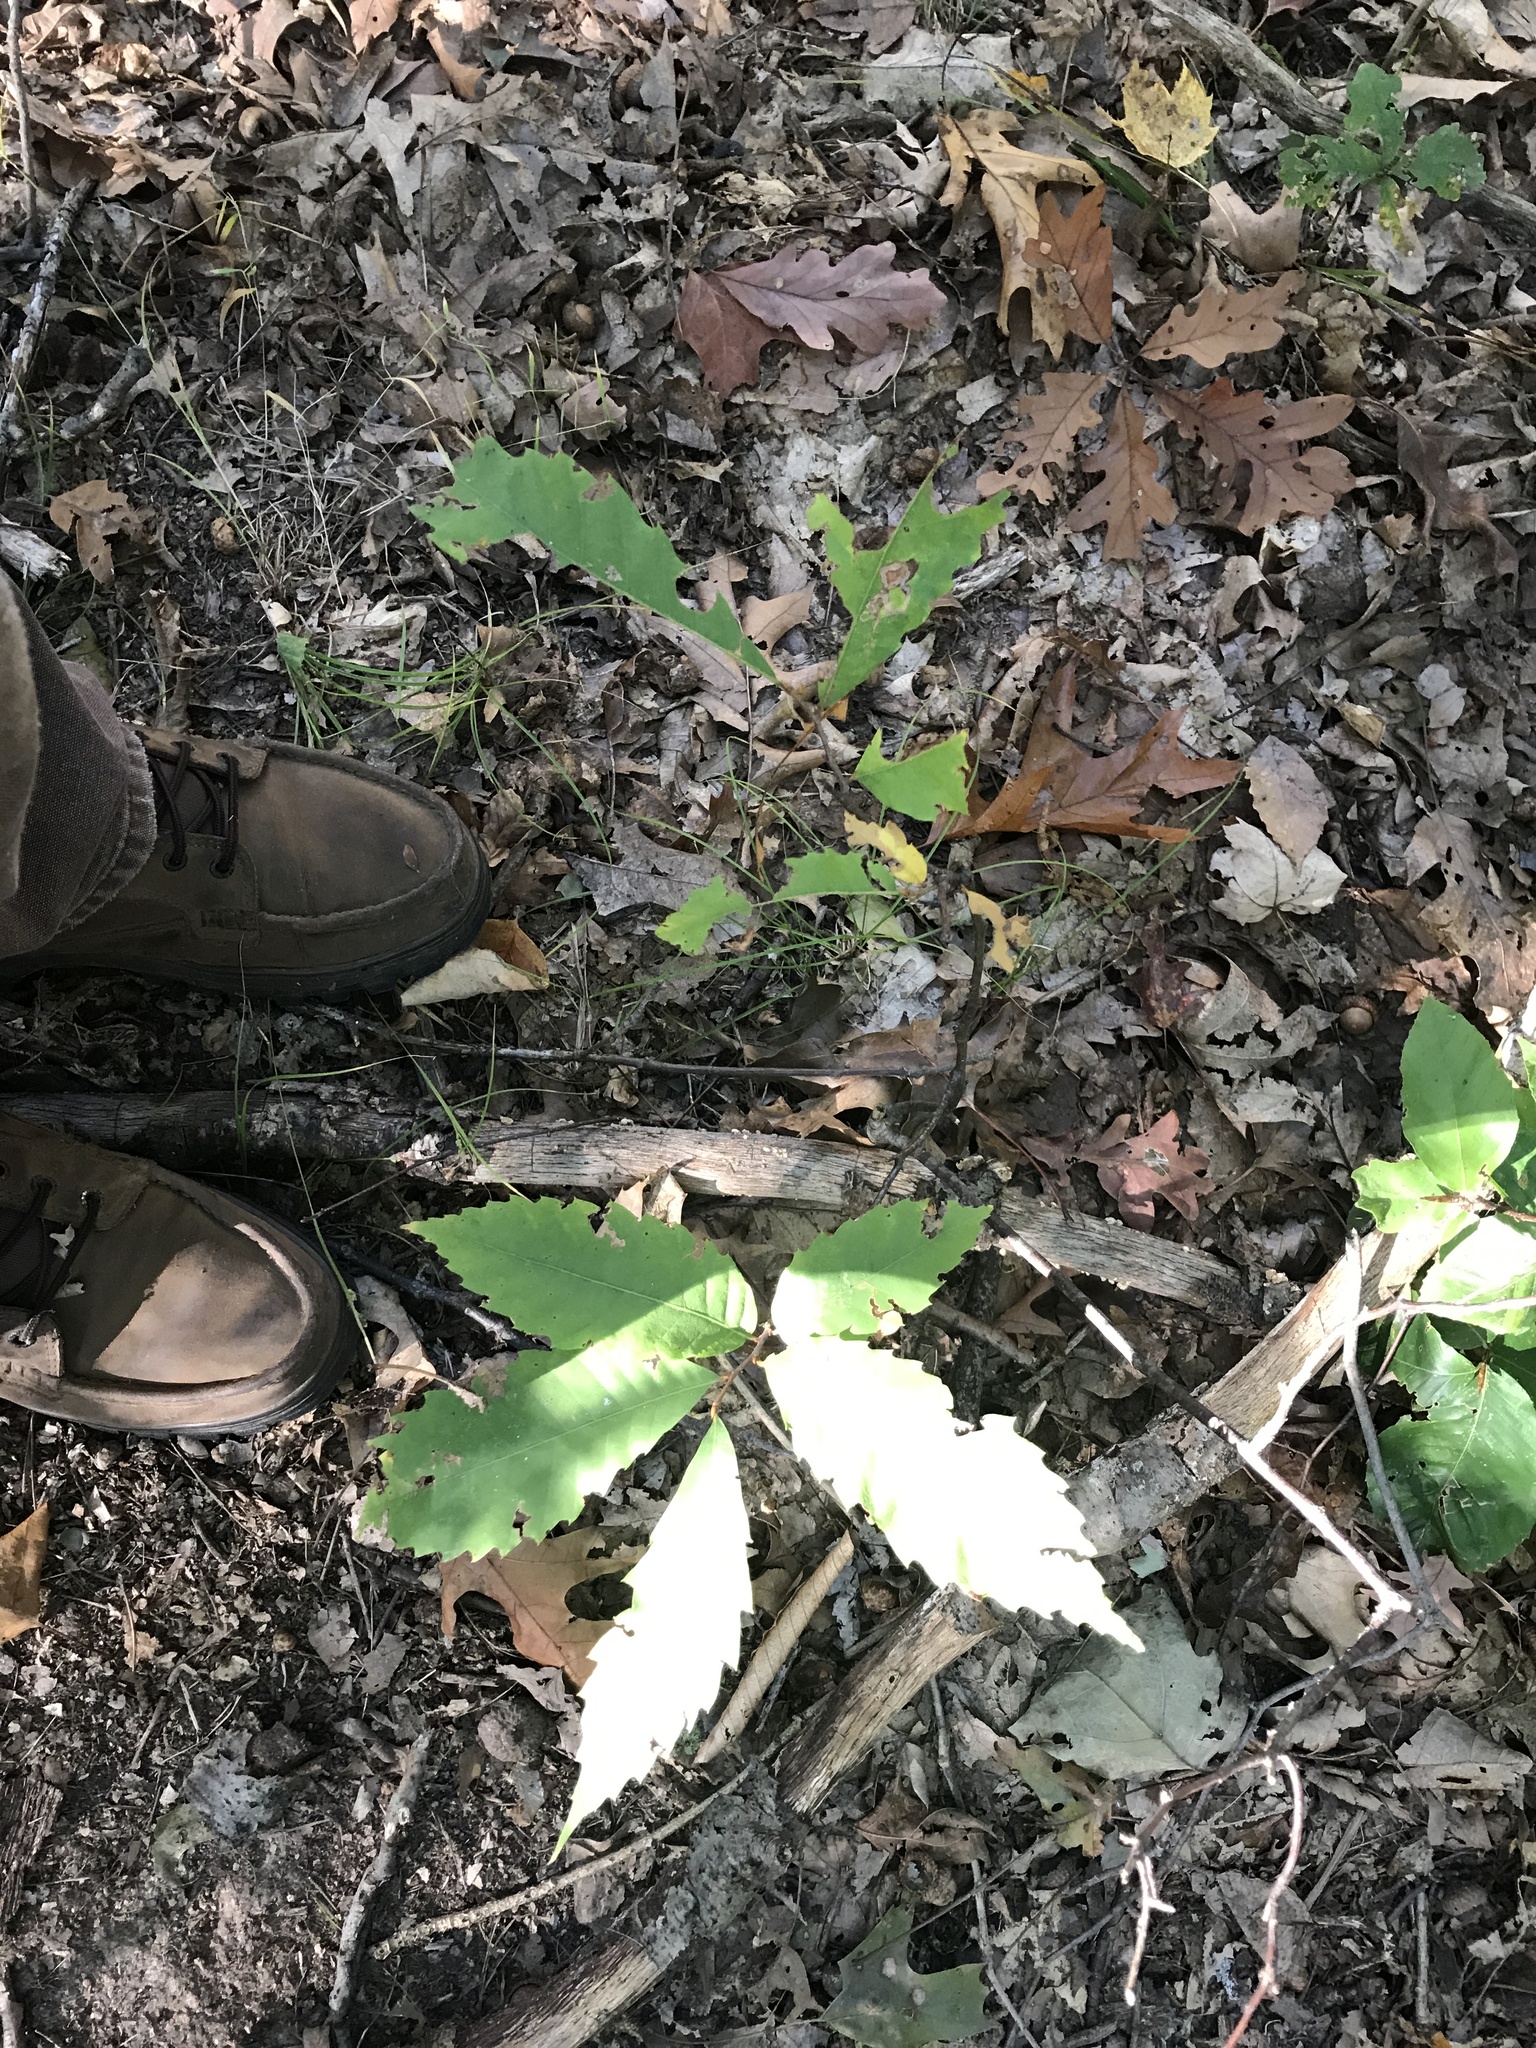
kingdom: Plantae
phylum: Tracheophyta
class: Magnoliopsida
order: Fagales
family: Fagaceae
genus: Castanea
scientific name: Castanea dentata
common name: American chestnut
